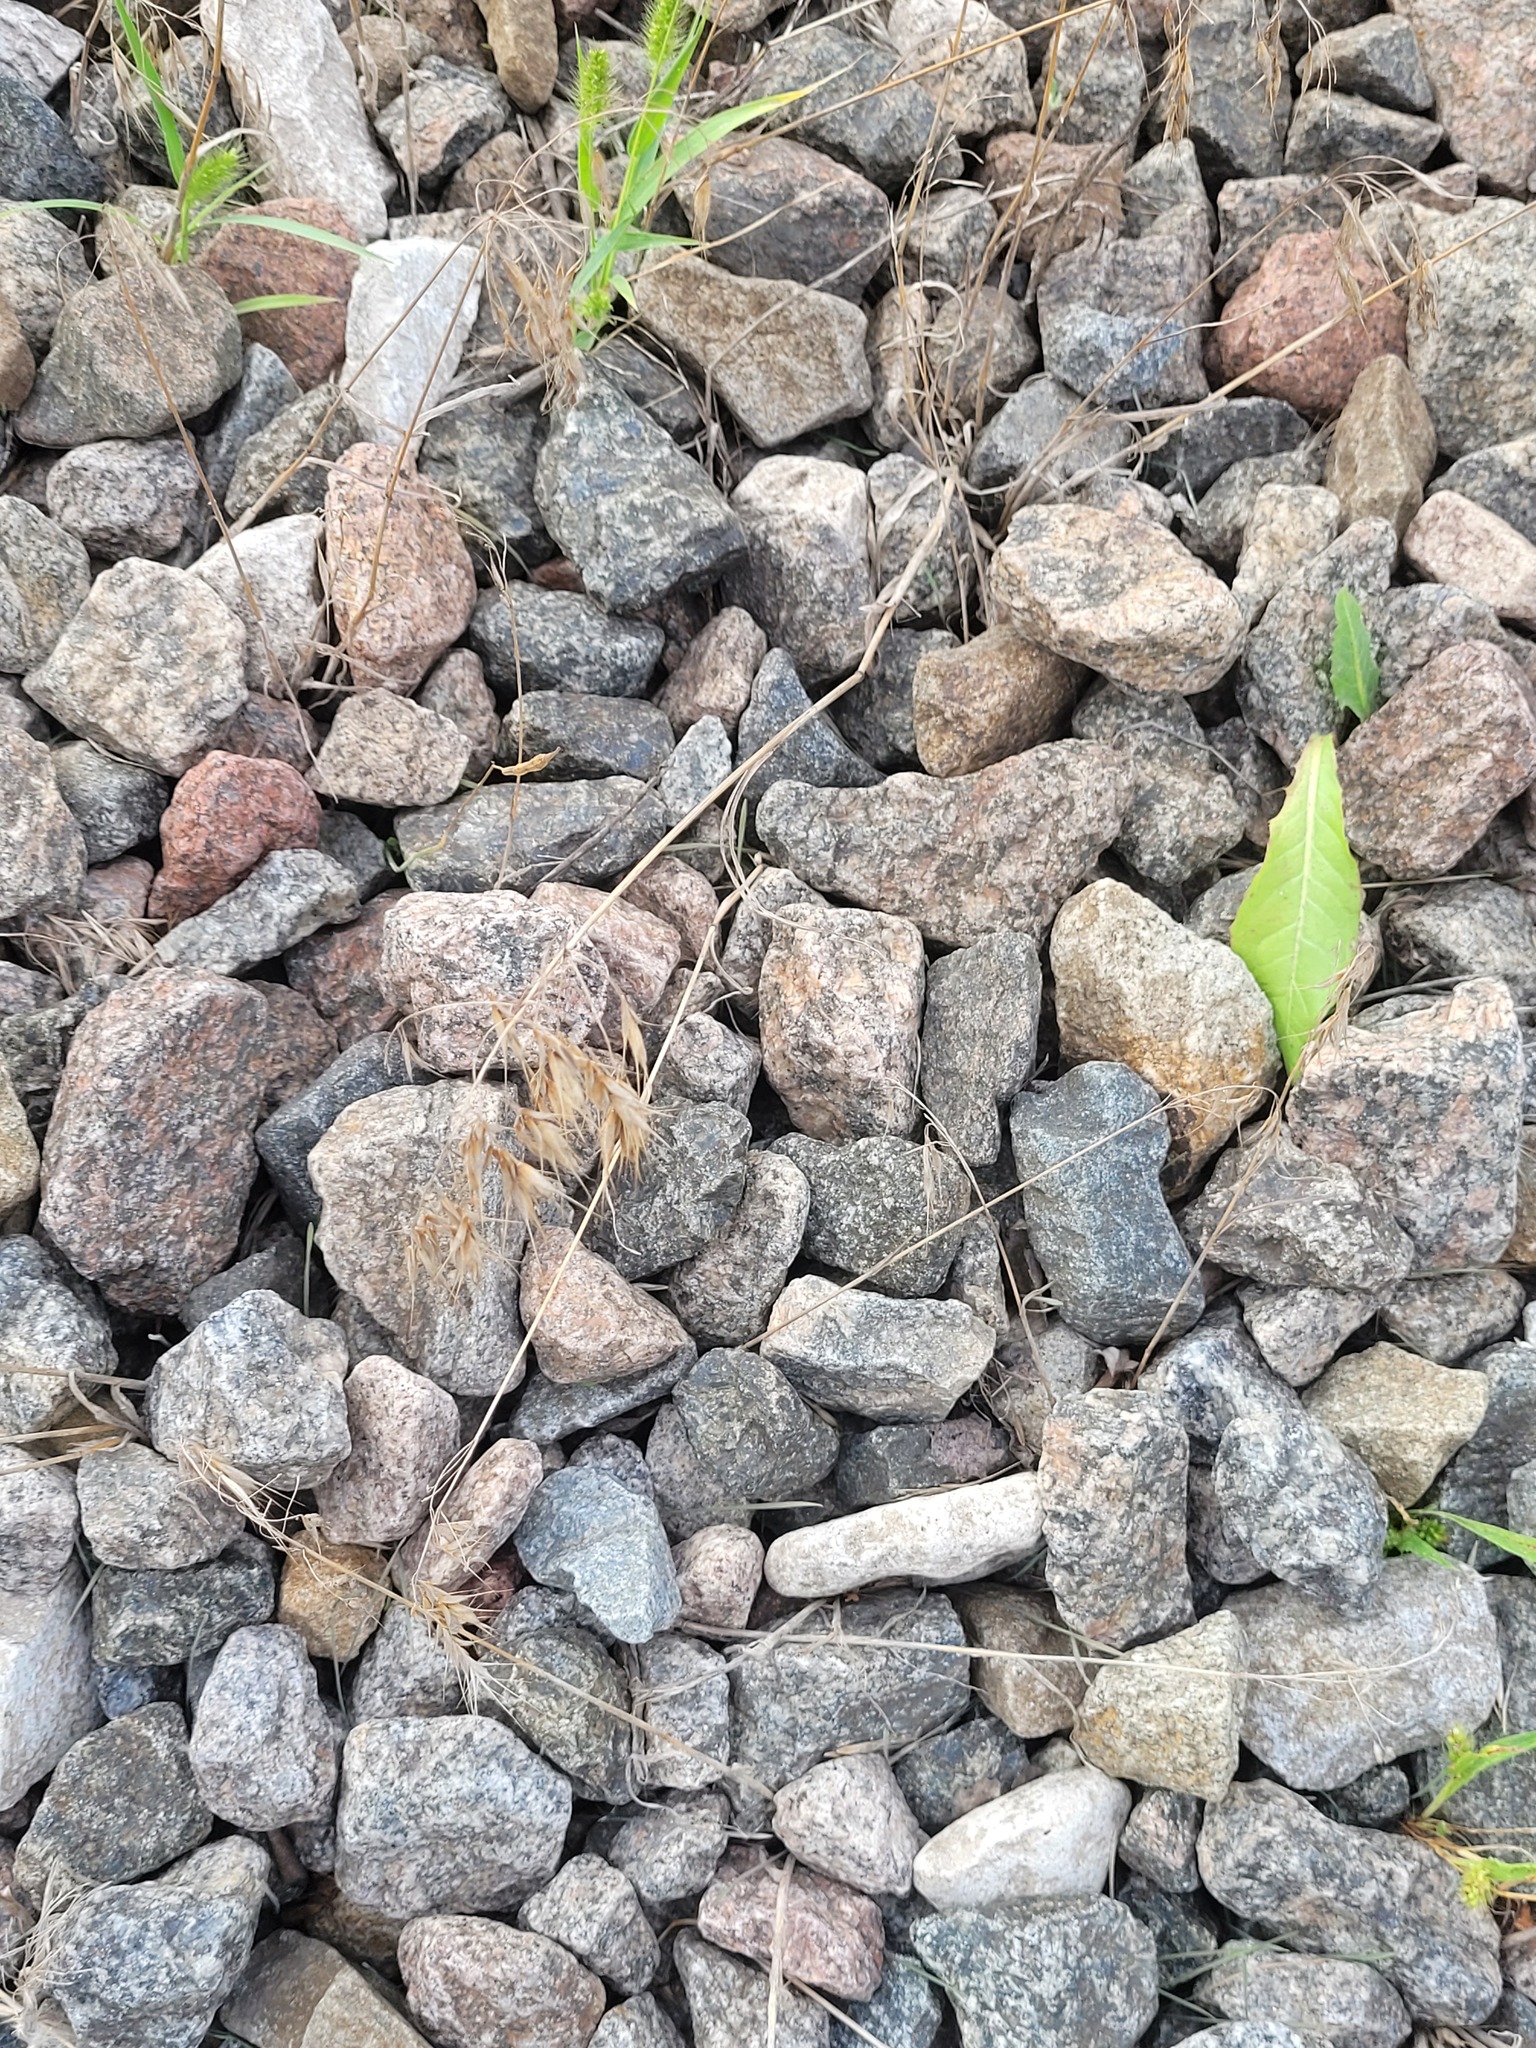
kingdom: Plantae
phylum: Tracheophyta
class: Liliopsida
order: Poales
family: Poaceae
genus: Bromus
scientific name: Bromus tectorum
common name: Cheatgrass
